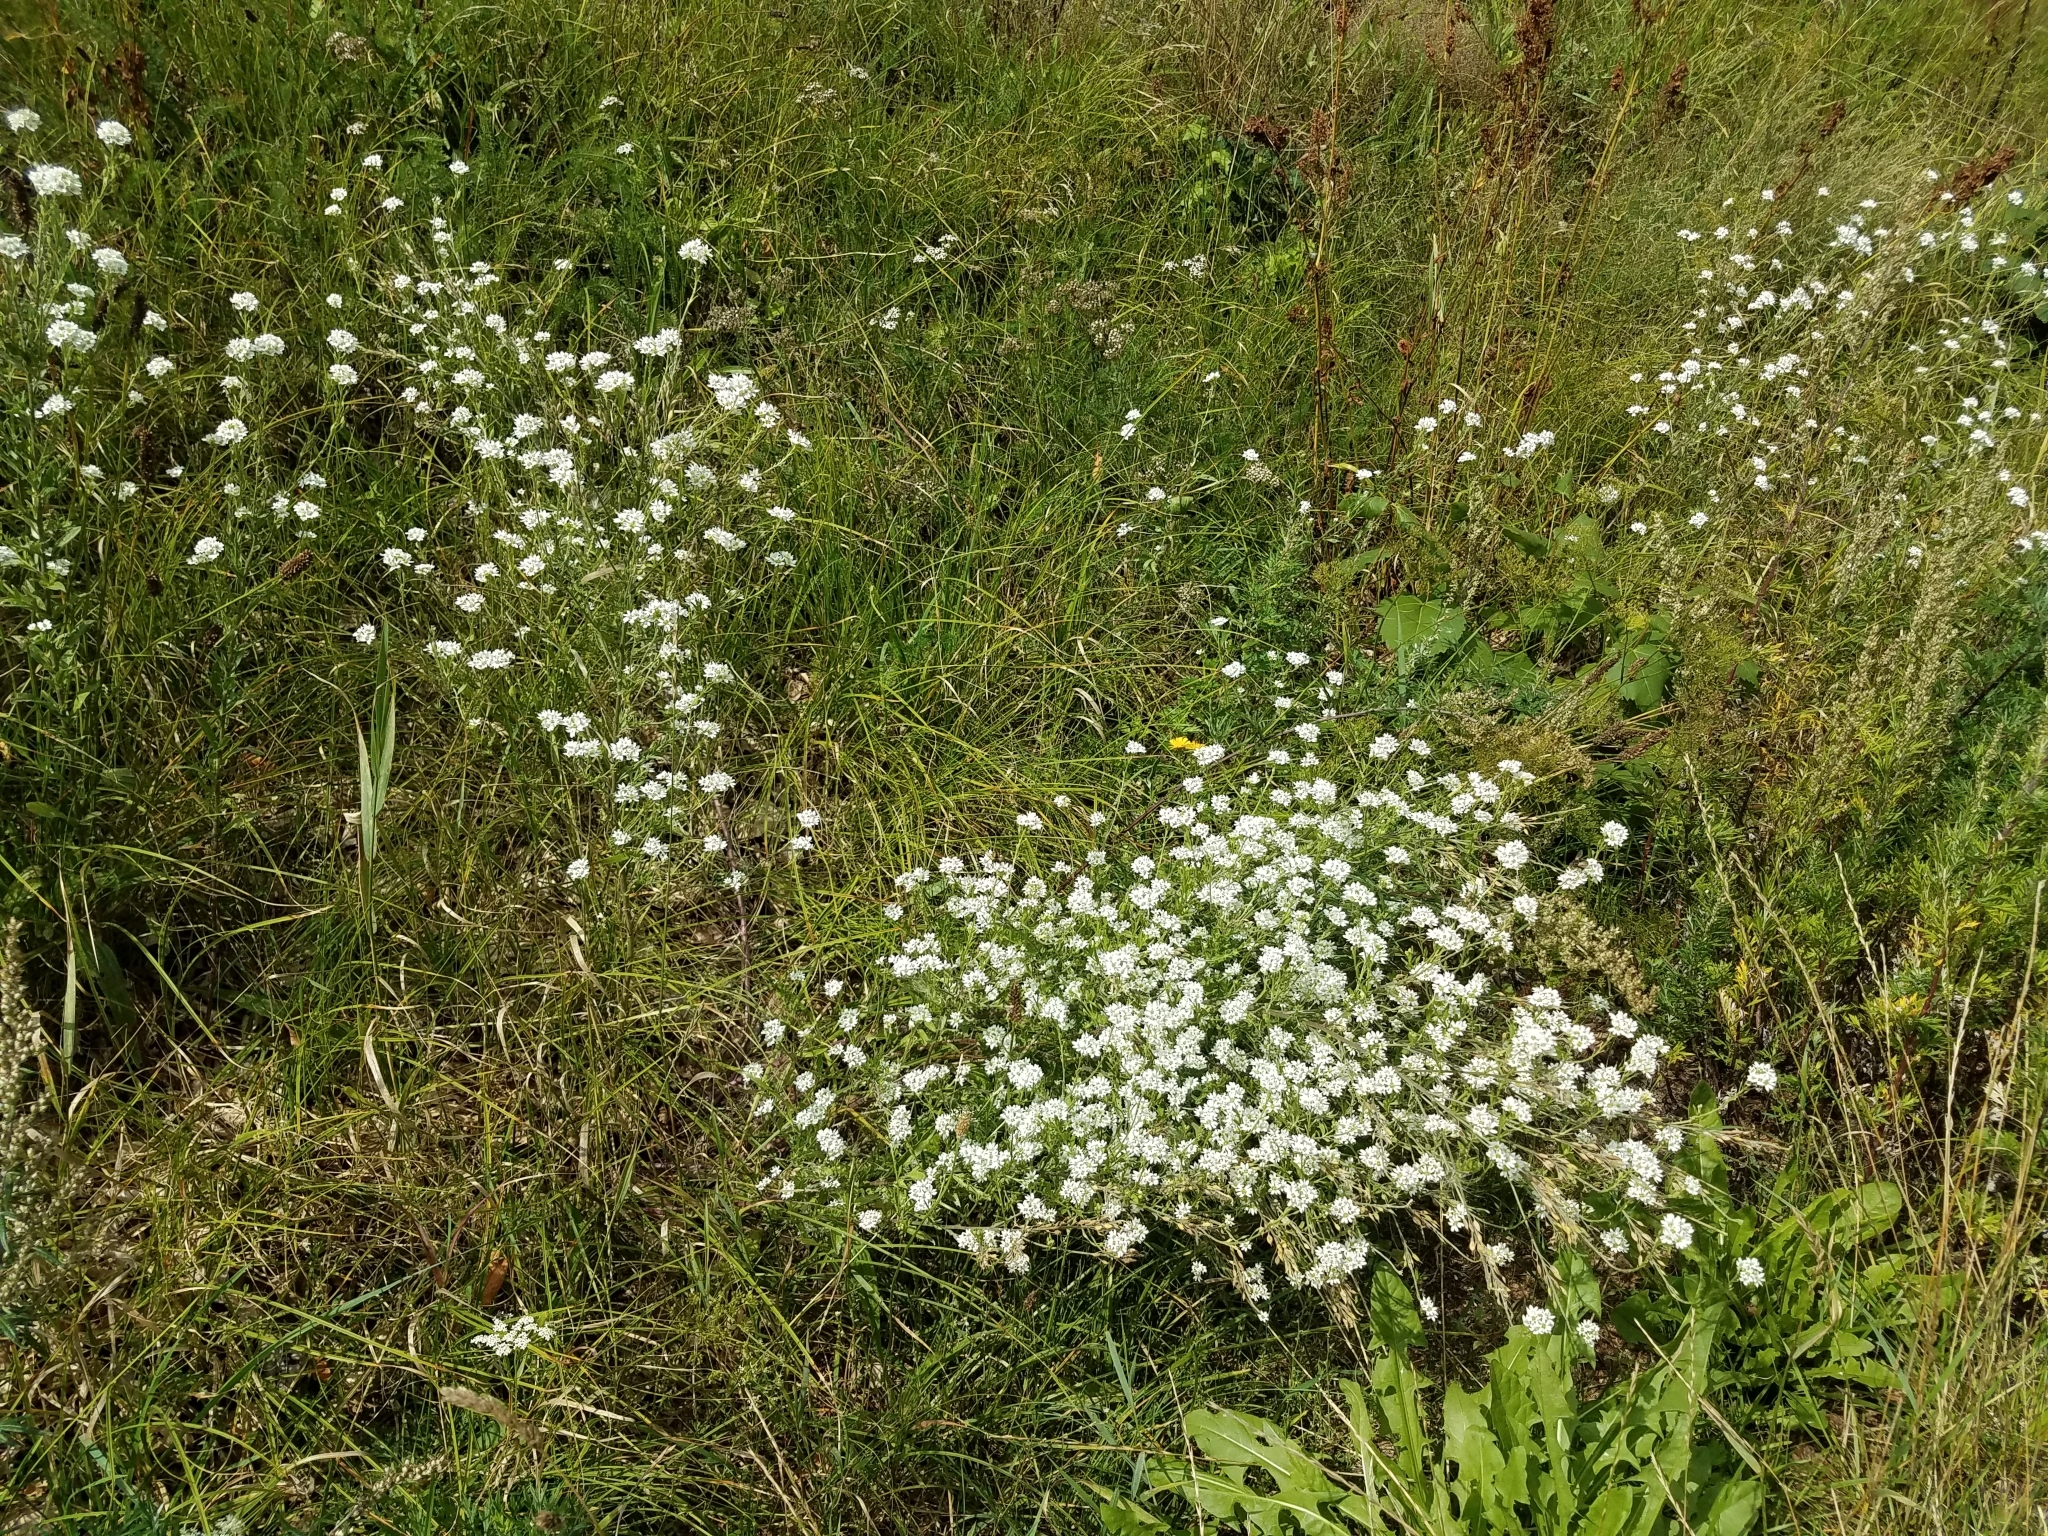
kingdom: Plantae
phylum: Tracheophyta
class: Magnoliopsida
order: Brassicales
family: Brassicaceae
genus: Berteroa
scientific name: Berteroa incana
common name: Hoary alison
